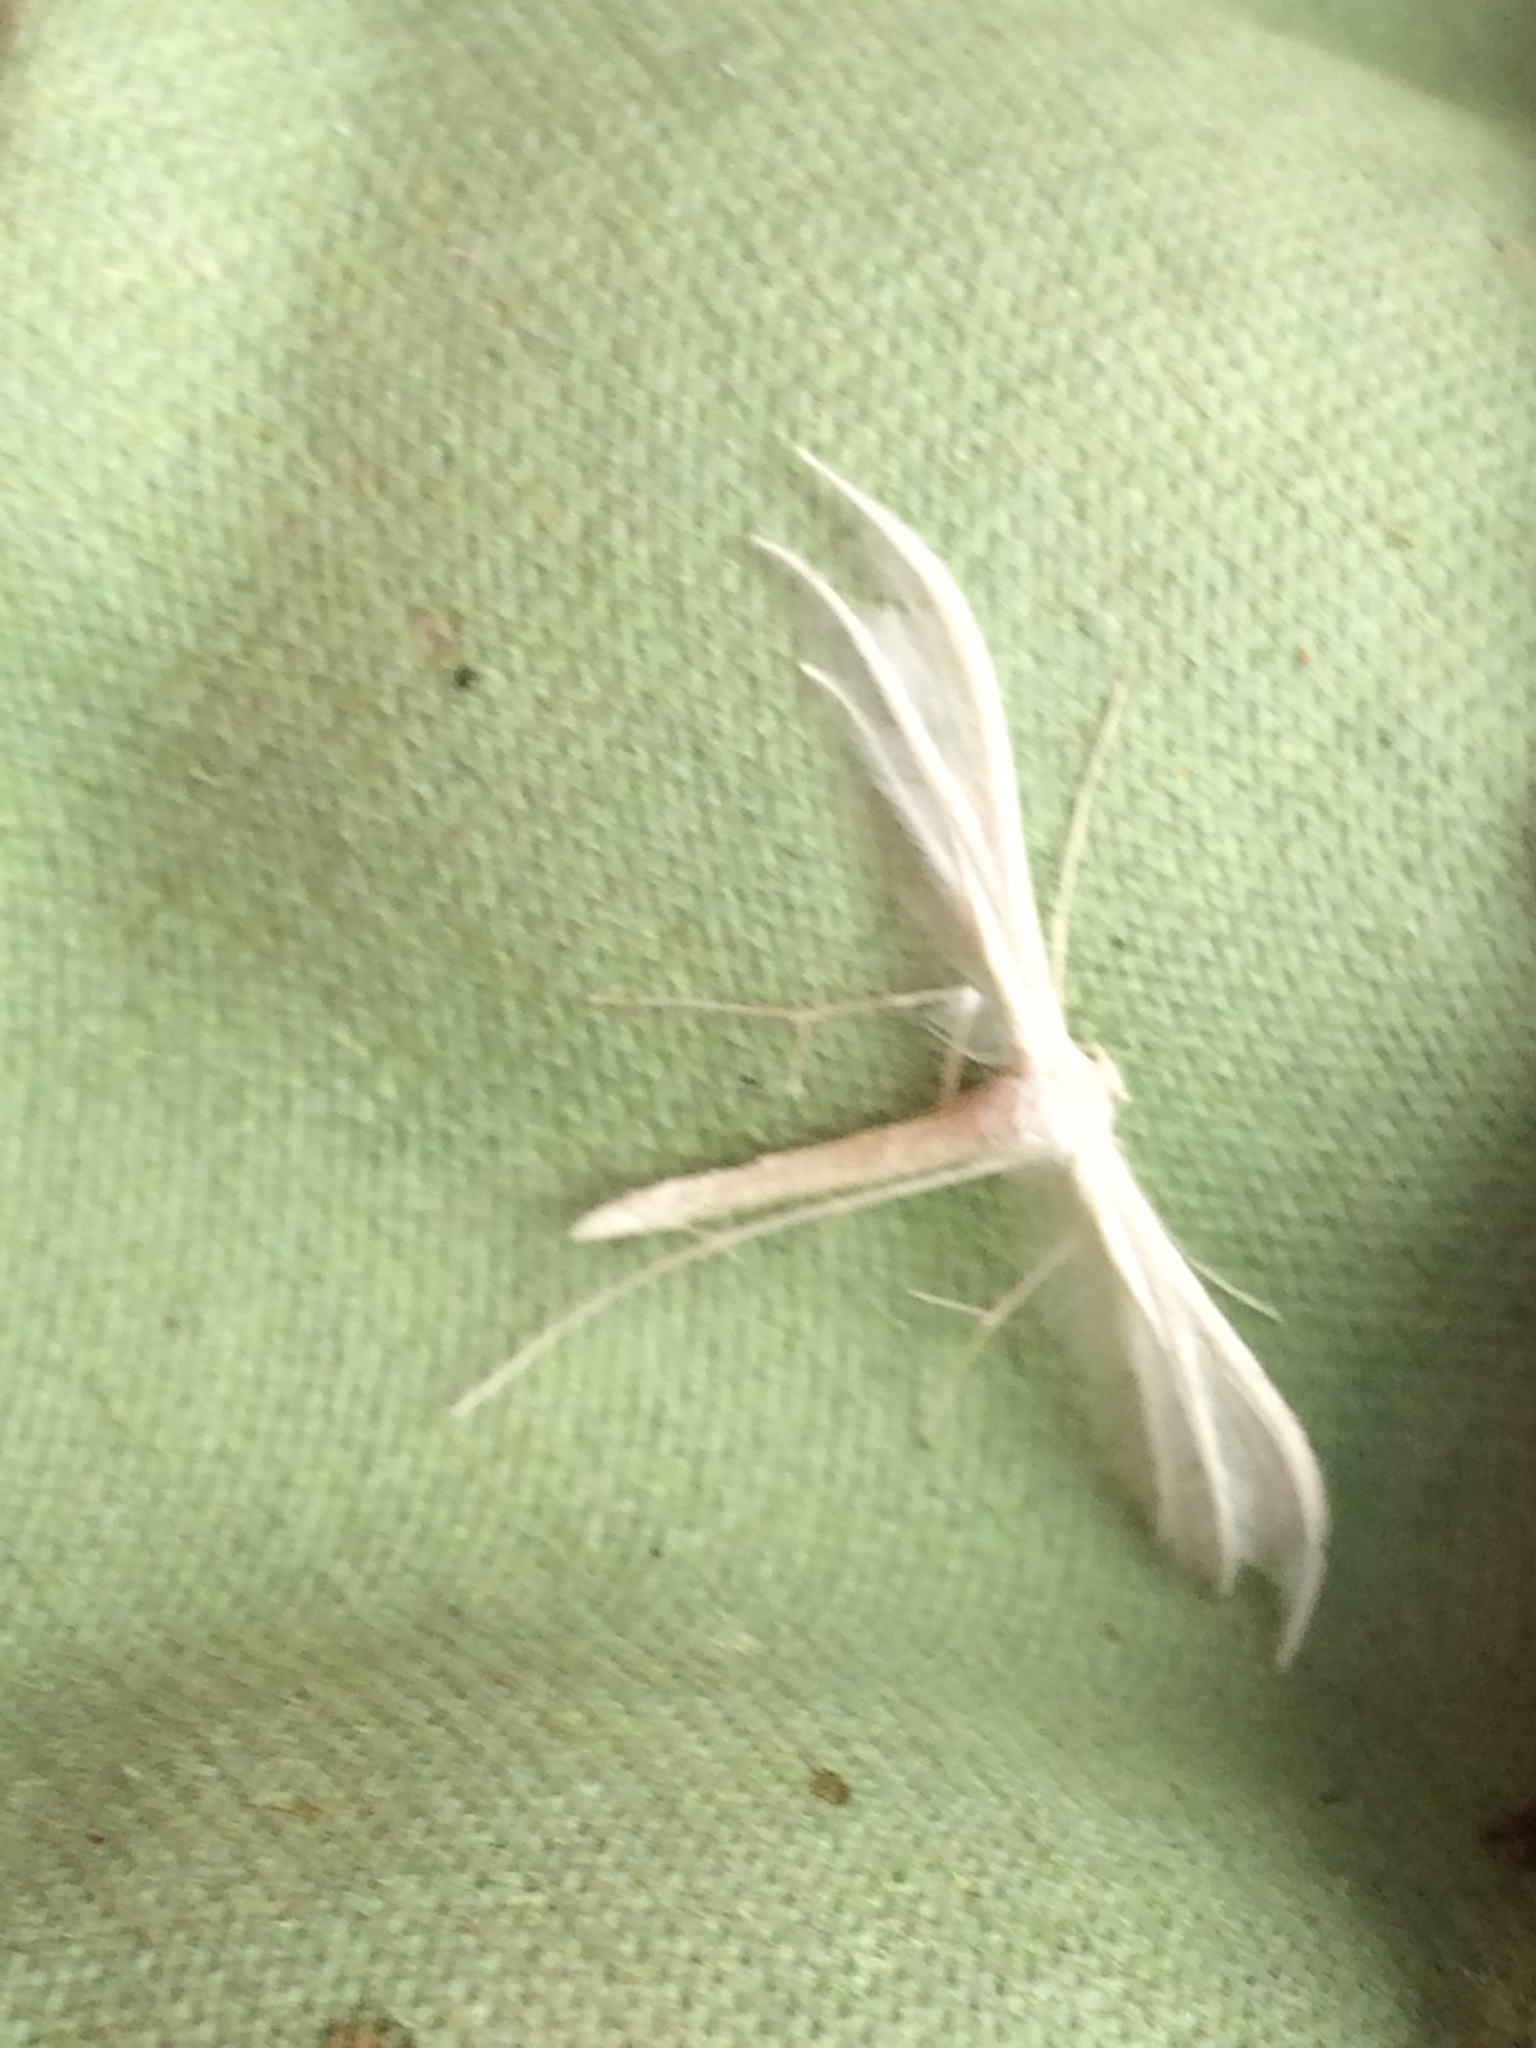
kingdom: Animalia
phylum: Arthropoda
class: Insecta
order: Lepidoptera
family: Pterophoridae
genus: Pterophorus
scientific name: Pterophorus pentadactyla
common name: White plume moth
